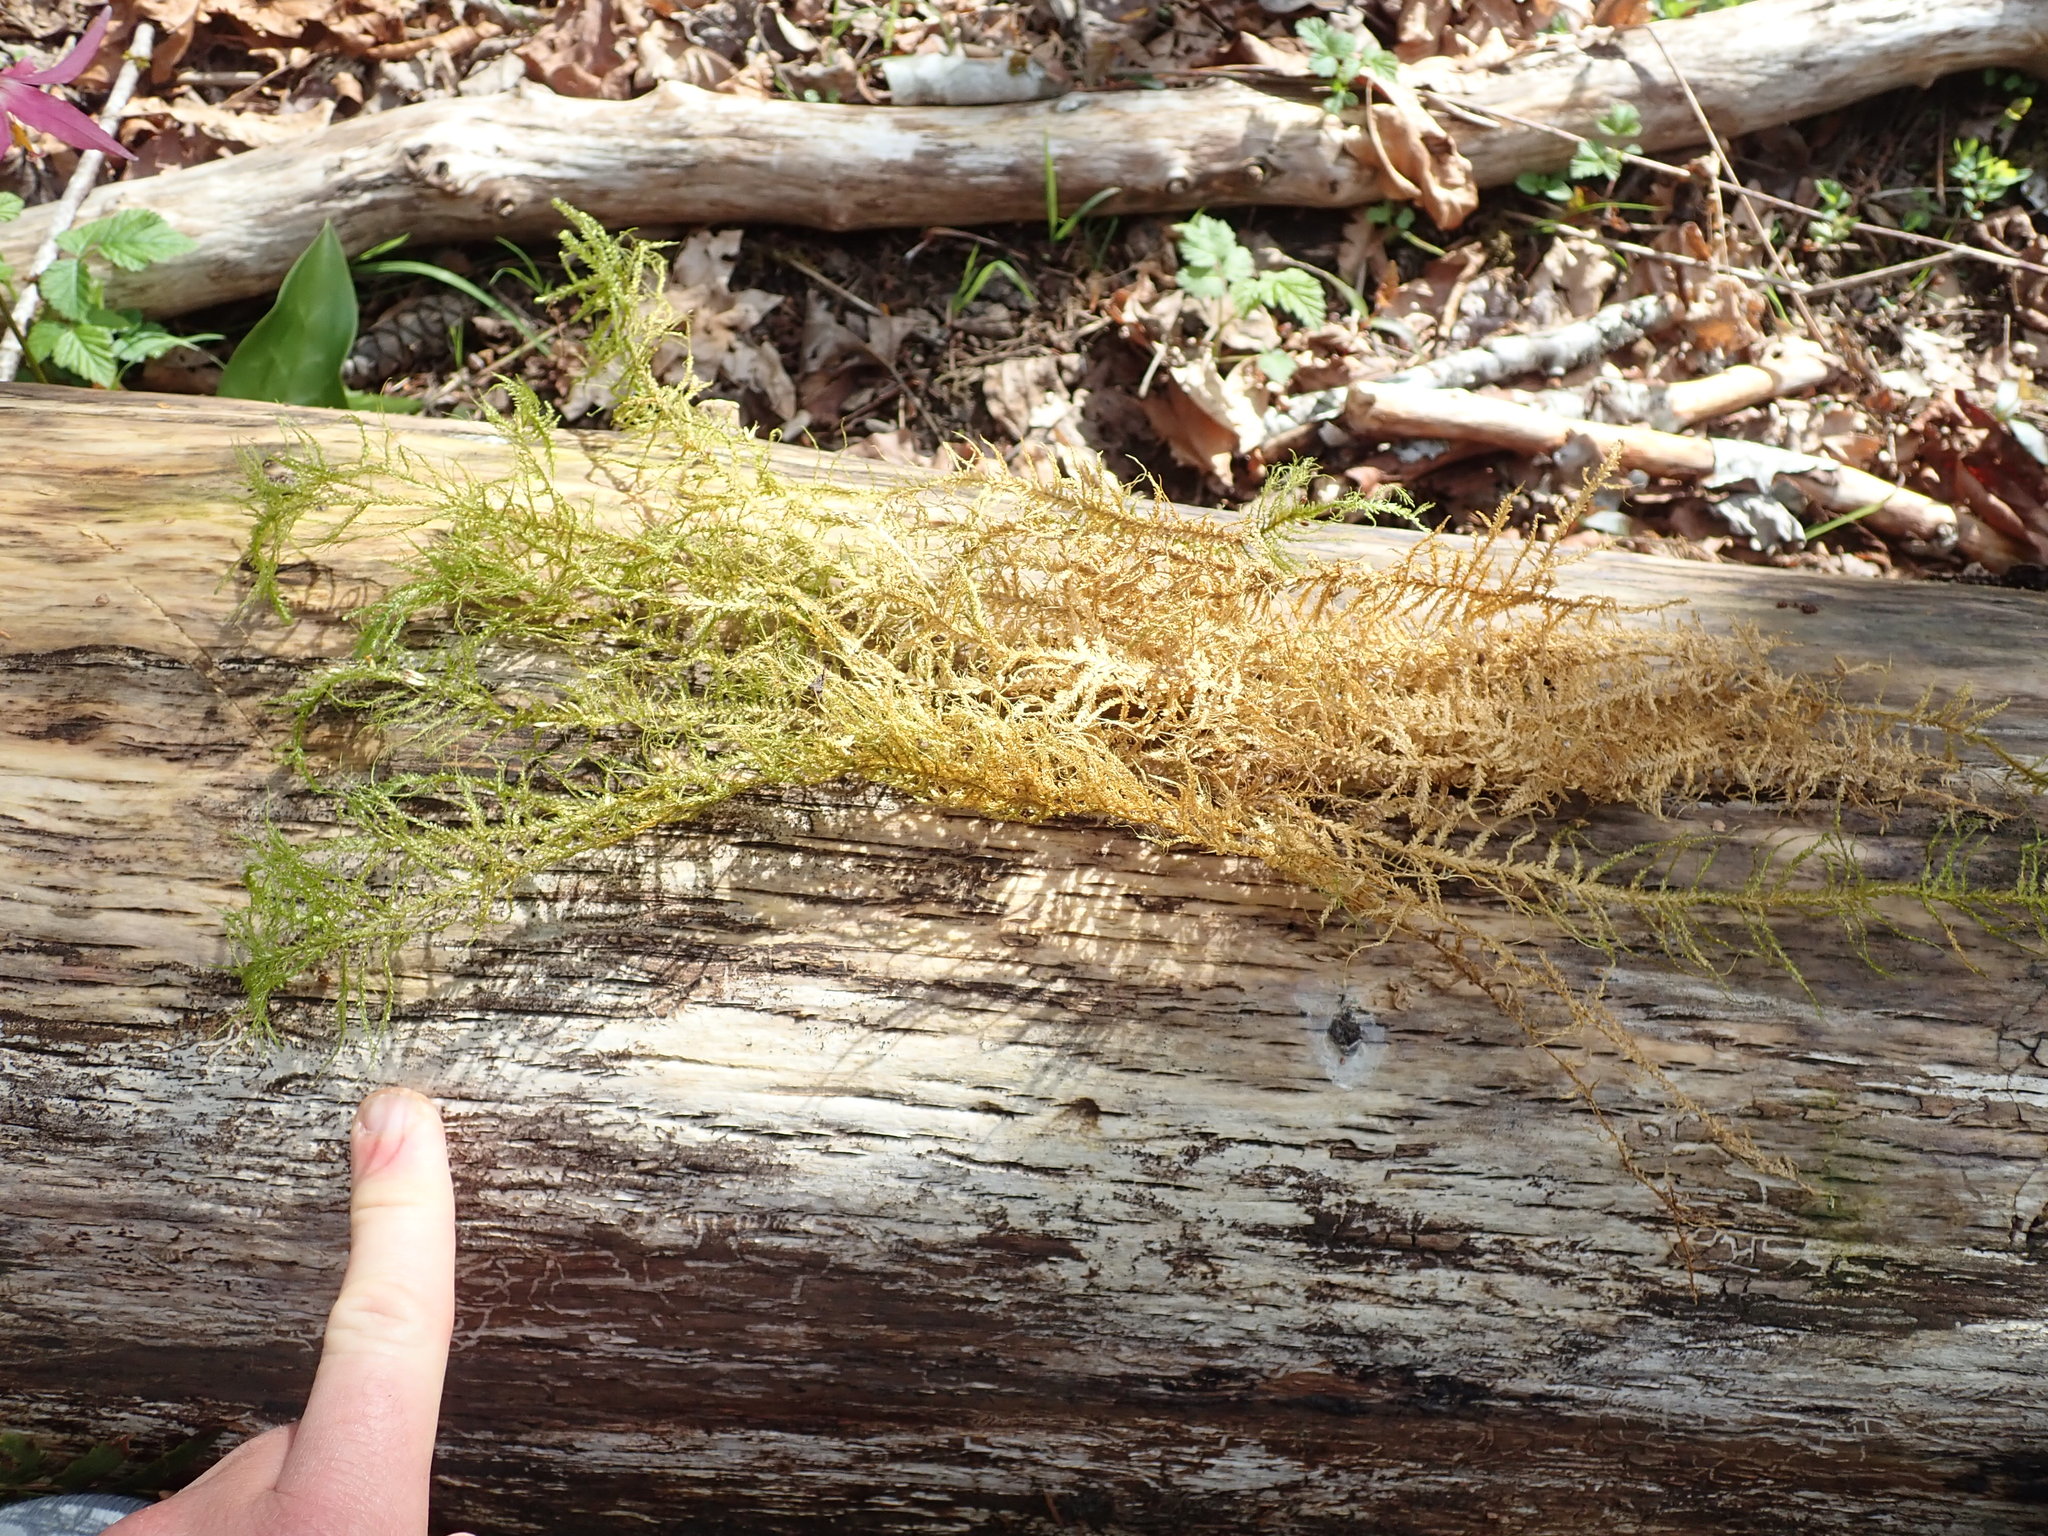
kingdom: Plantae
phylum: Bryophyta
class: Bryopsida
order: Hypnales
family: Neckeraceae
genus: Metaneckera
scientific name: Metaneckera menziesii
